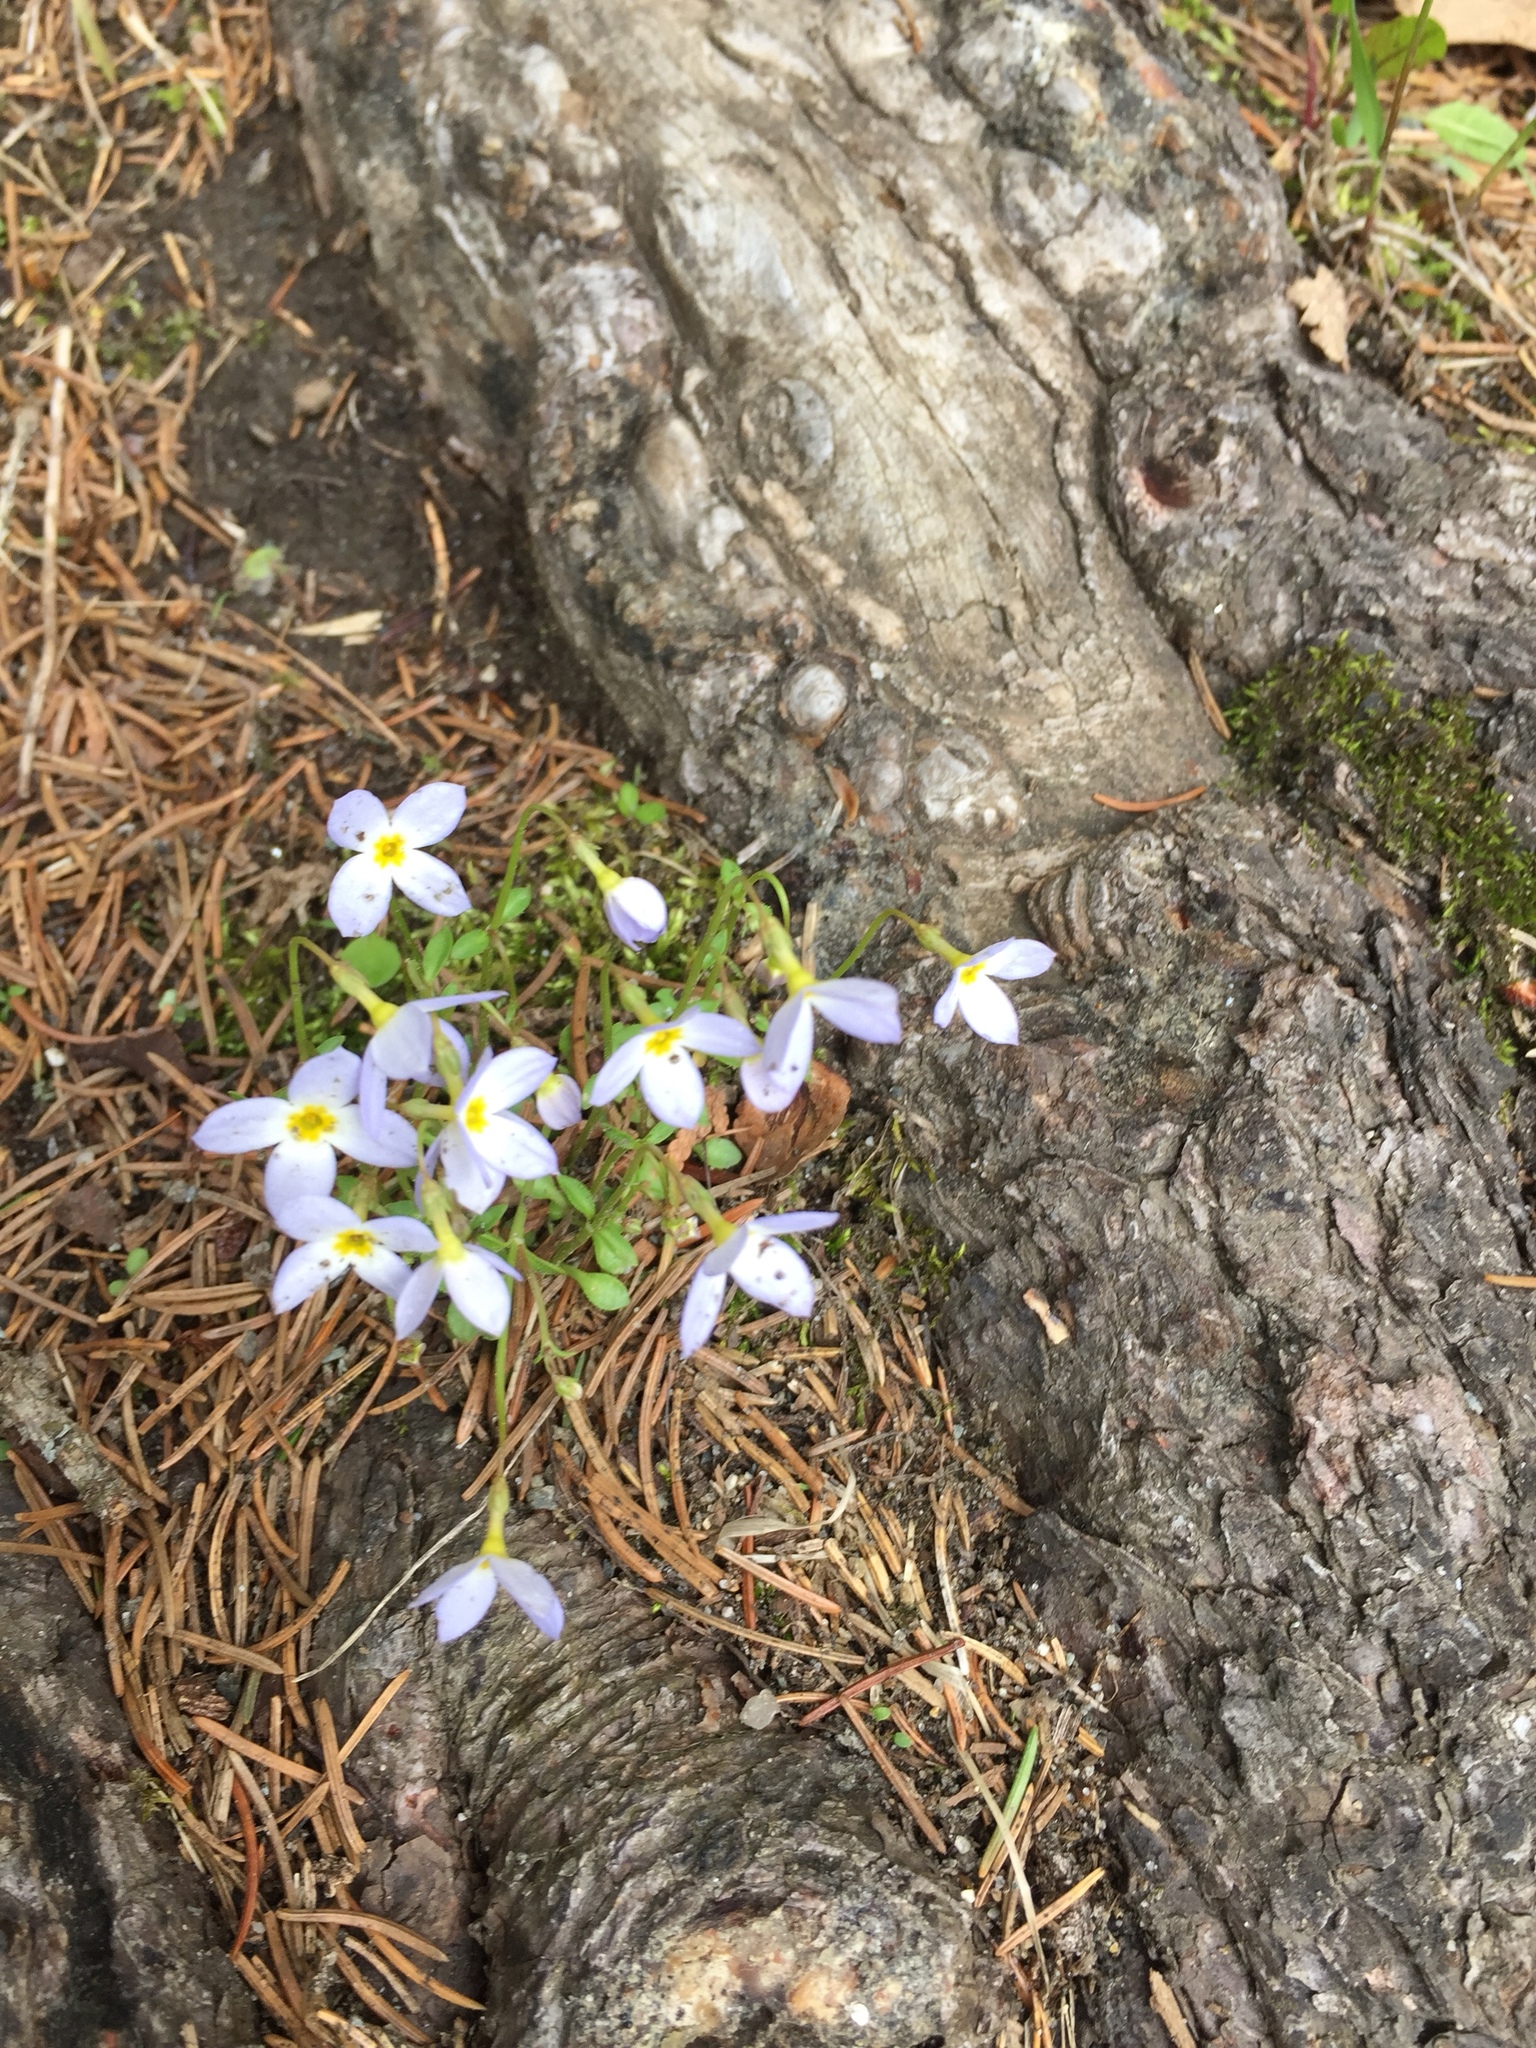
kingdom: Plantae
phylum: Tracheophyta
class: Magnoliopsida
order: Gentianales
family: Rubiaceae
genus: Houstonia
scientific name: Houstonia caerulea
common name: Bluets
